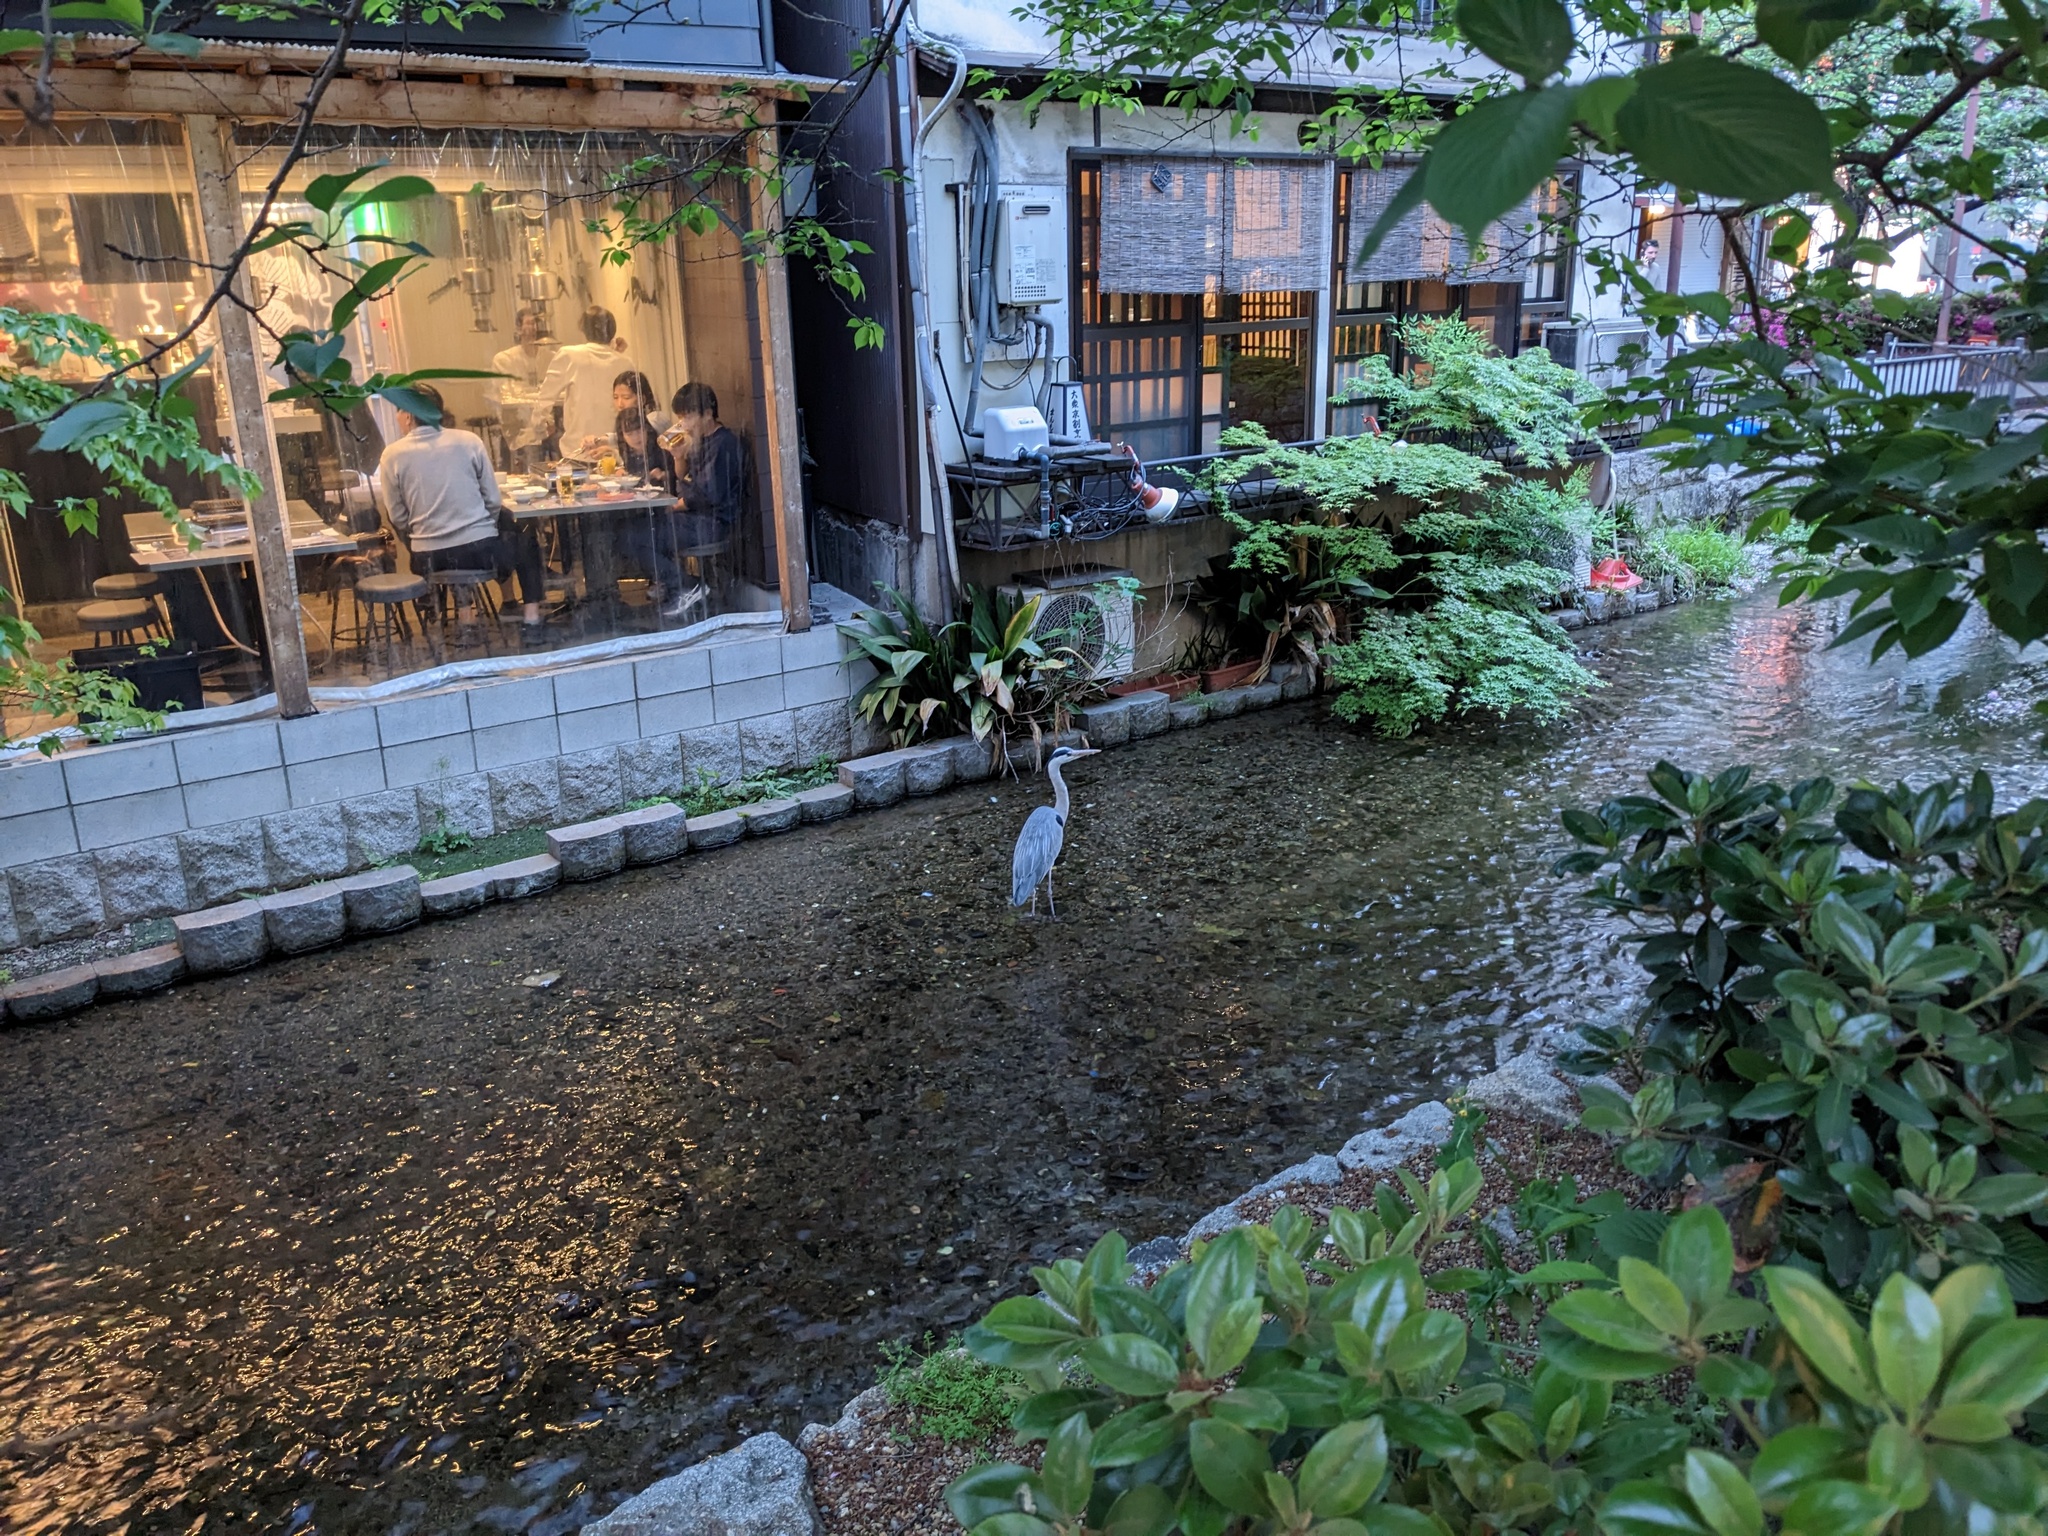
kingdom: Animalia
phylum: Chordata
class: Aves
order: Pelecaniformes
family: Ardeidae
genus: Ardea
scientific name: Ardea cinerea
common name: Grey heron
